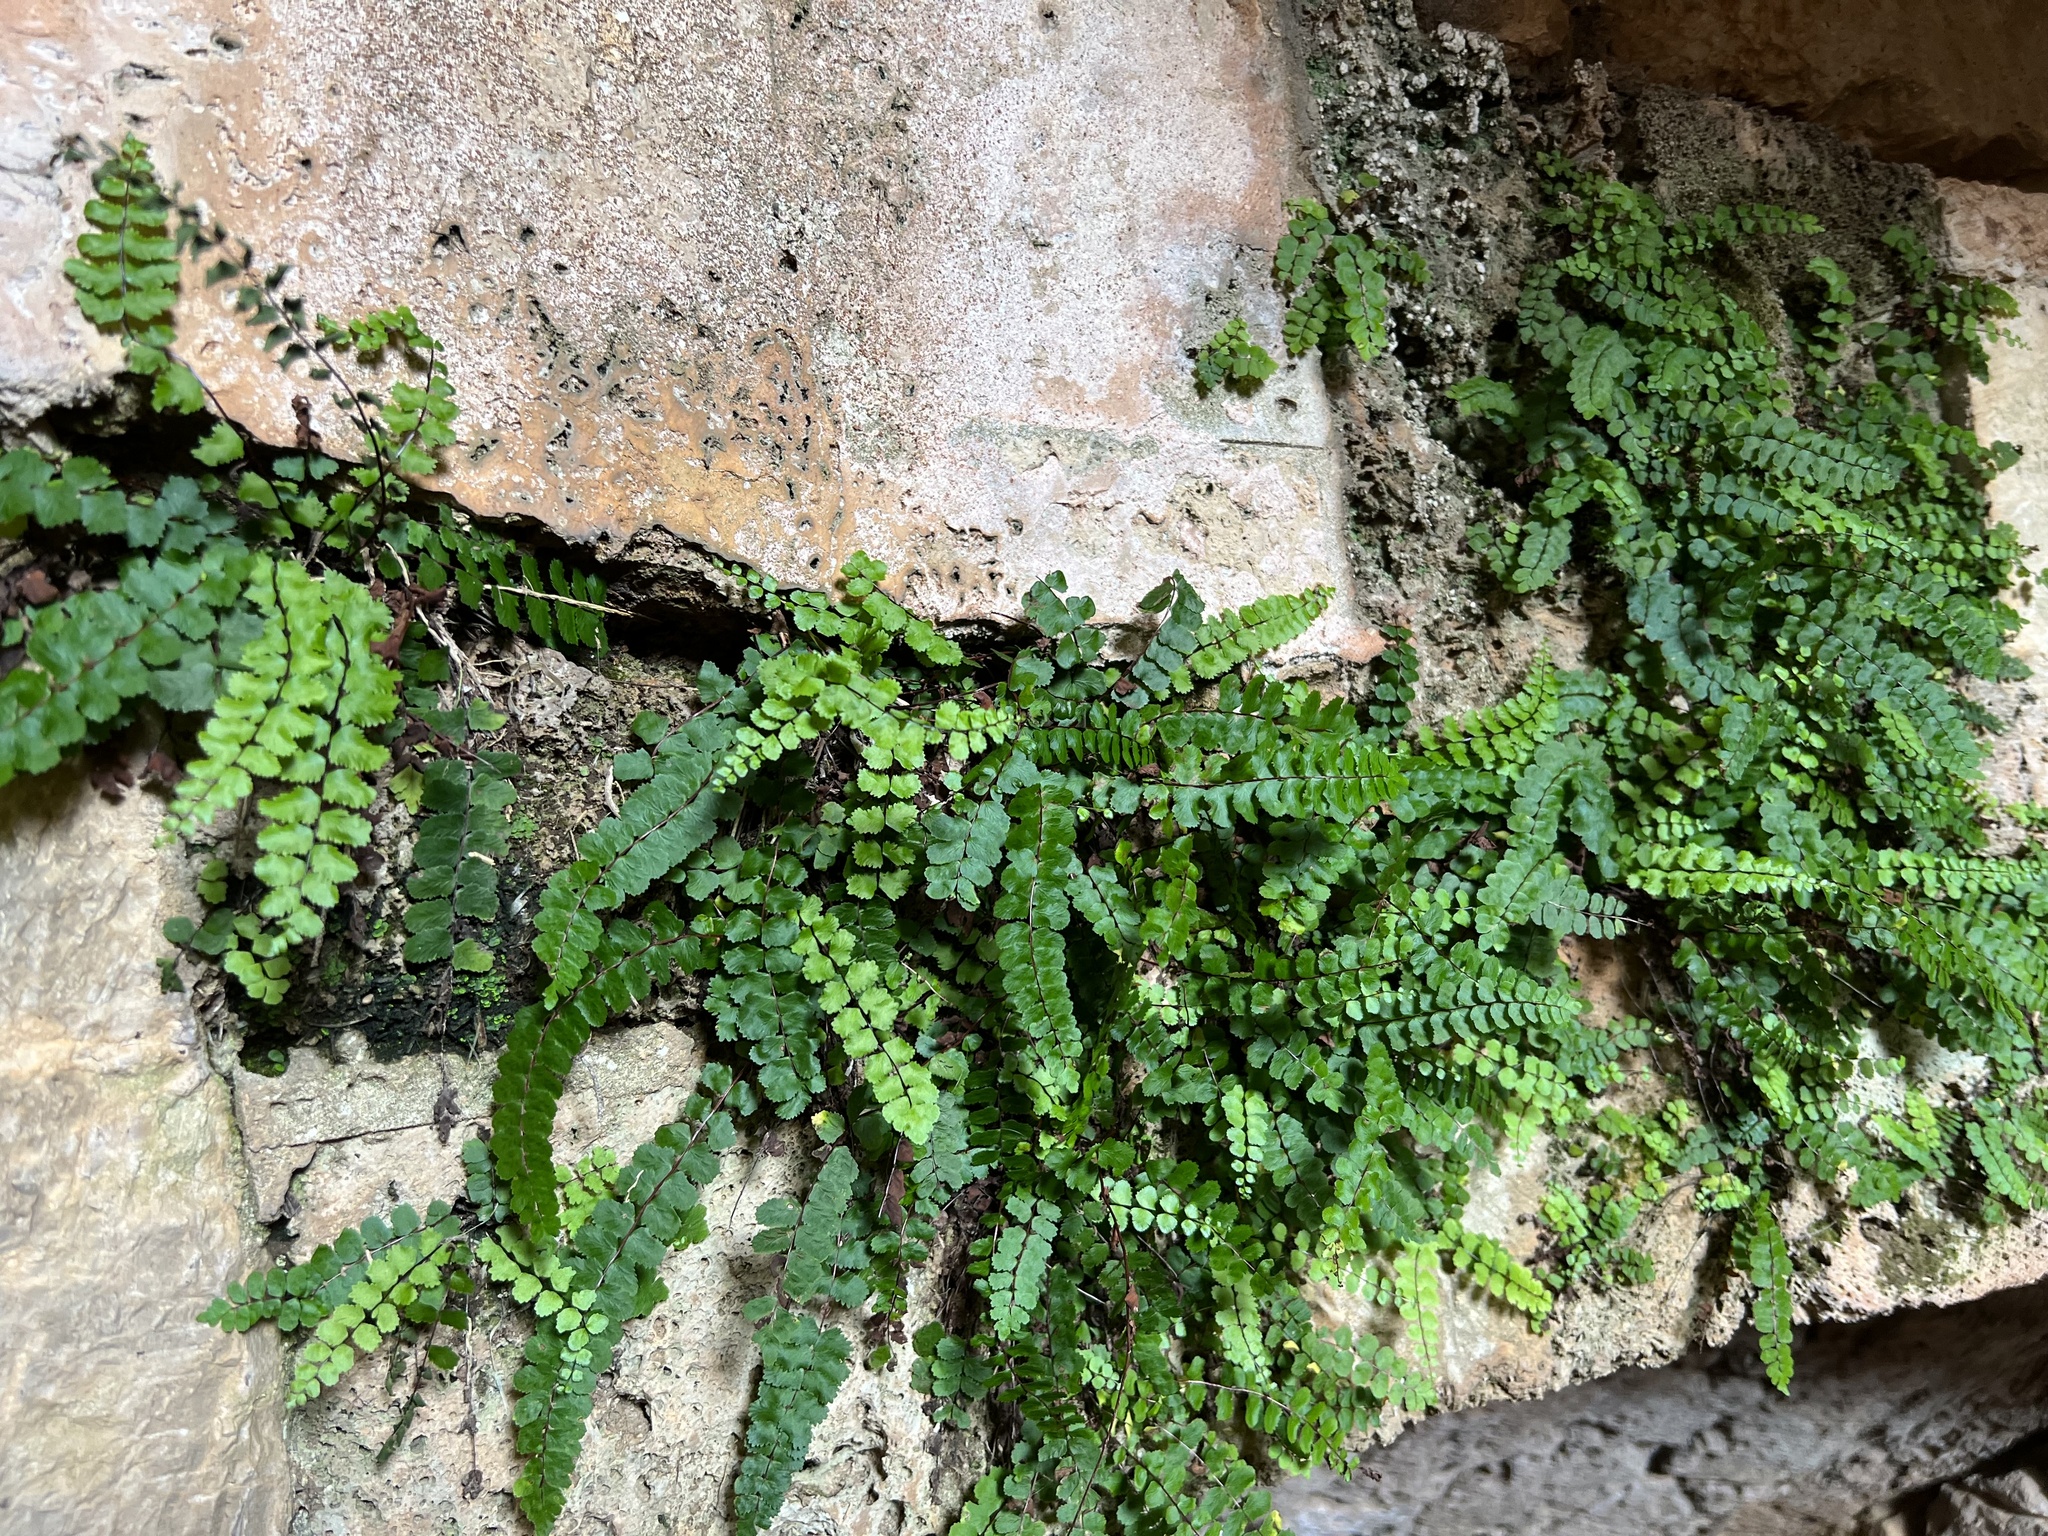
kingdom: Plantae
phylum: Tracheophyta
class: Polypodiopsida
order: Polypodiales
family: Aspleniaceae
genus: Asplenium
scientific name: Asplenium trichomanes
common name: Maidenhair spleenwort
